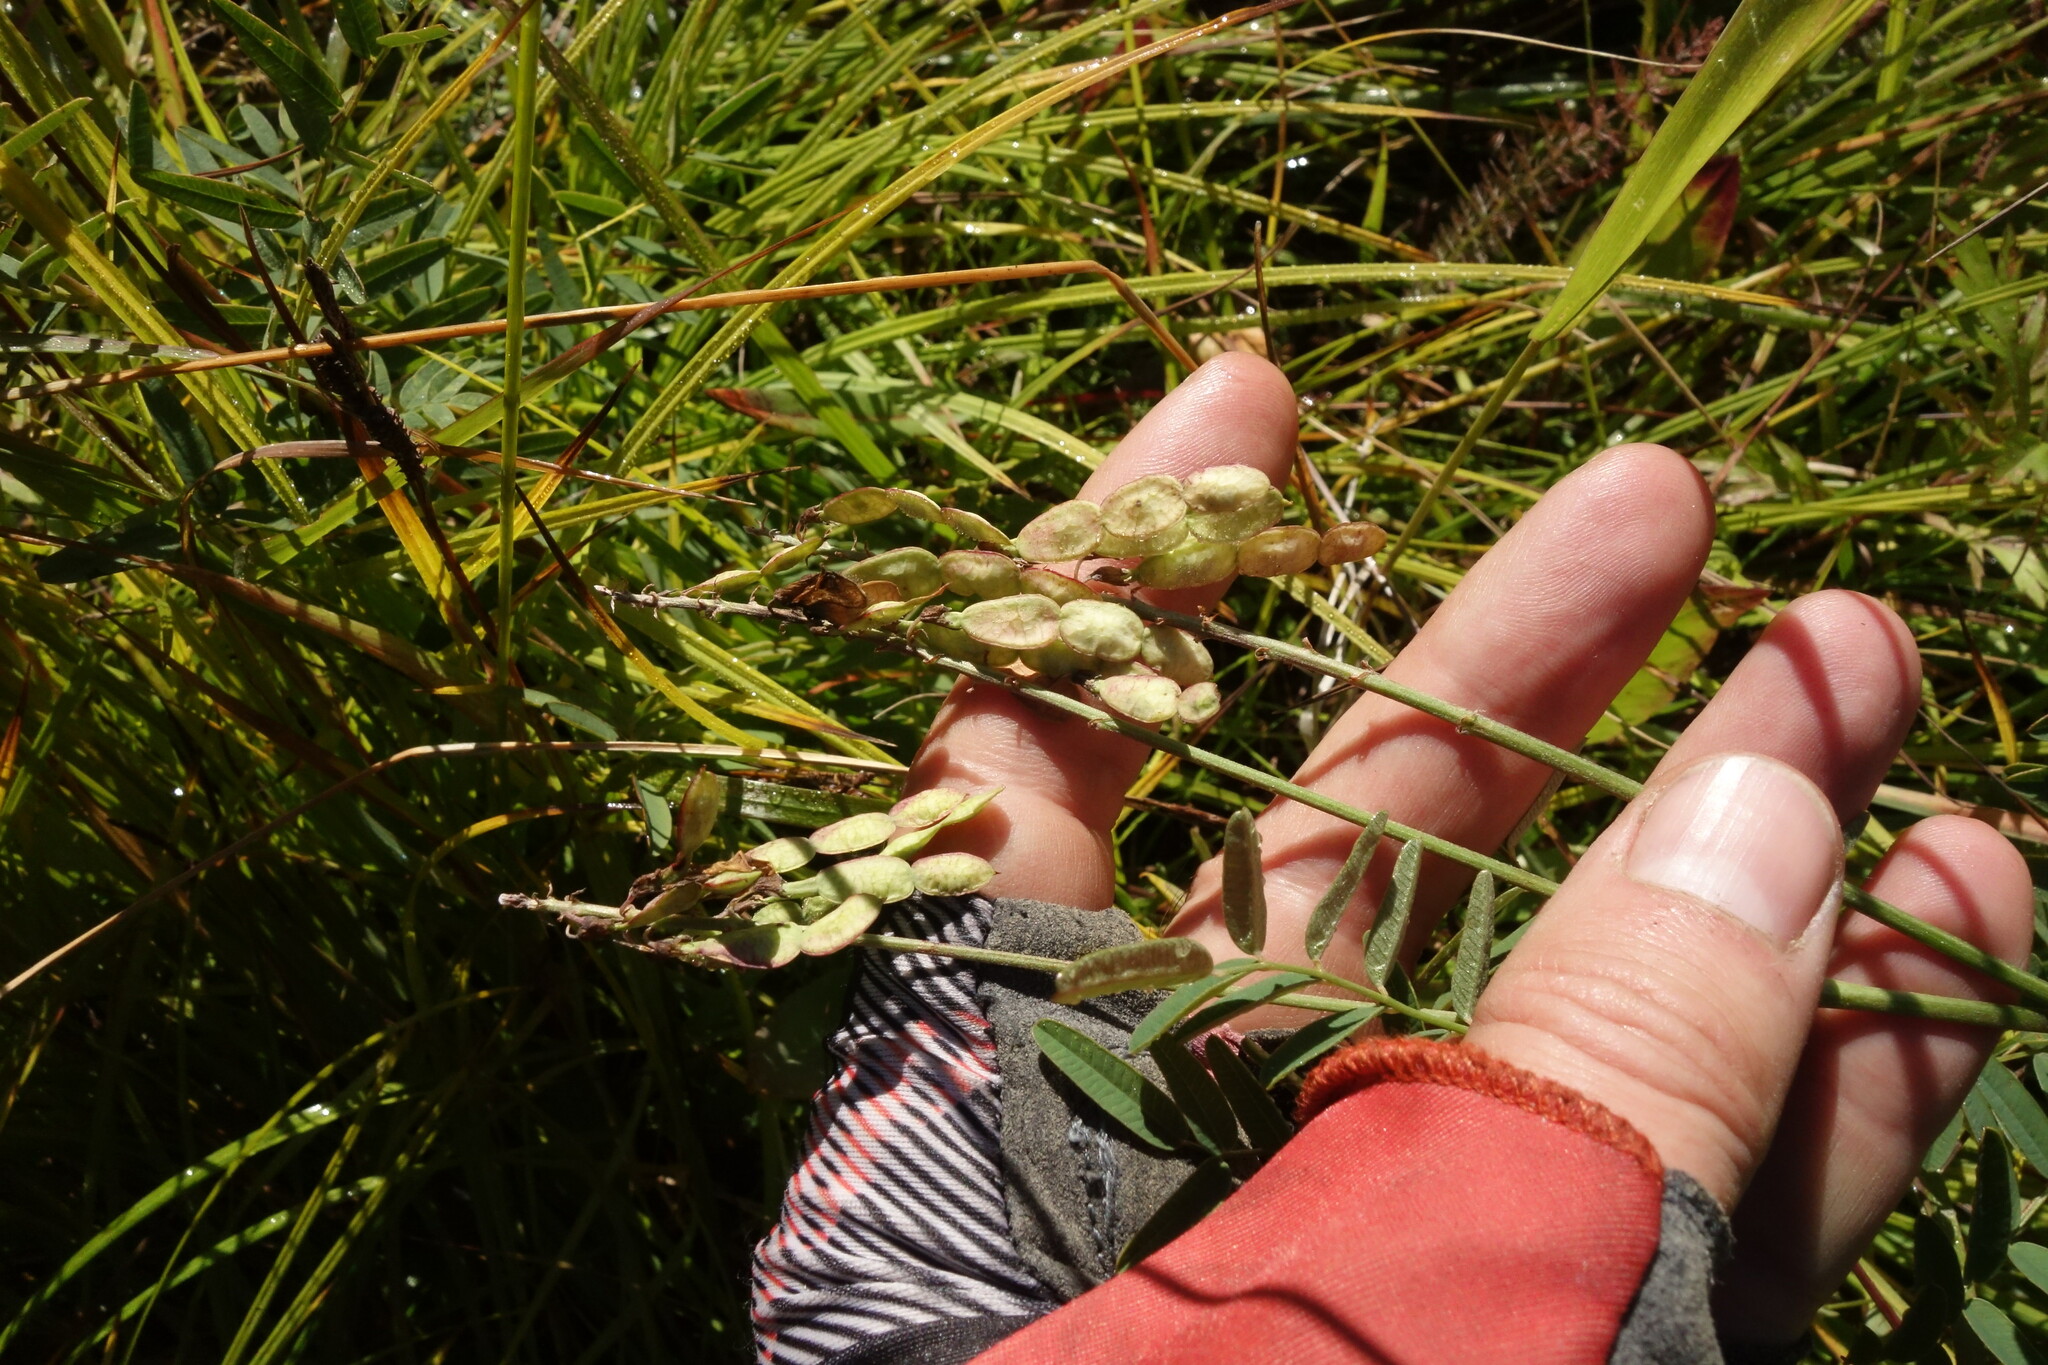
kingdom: Plantae
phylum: Tracheophyta
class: Magnoliopsida
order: Fabales
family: Fabaceae
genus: Hedysarum
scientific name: Hedysarum alpinum
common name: Alpine sweet-vetch
